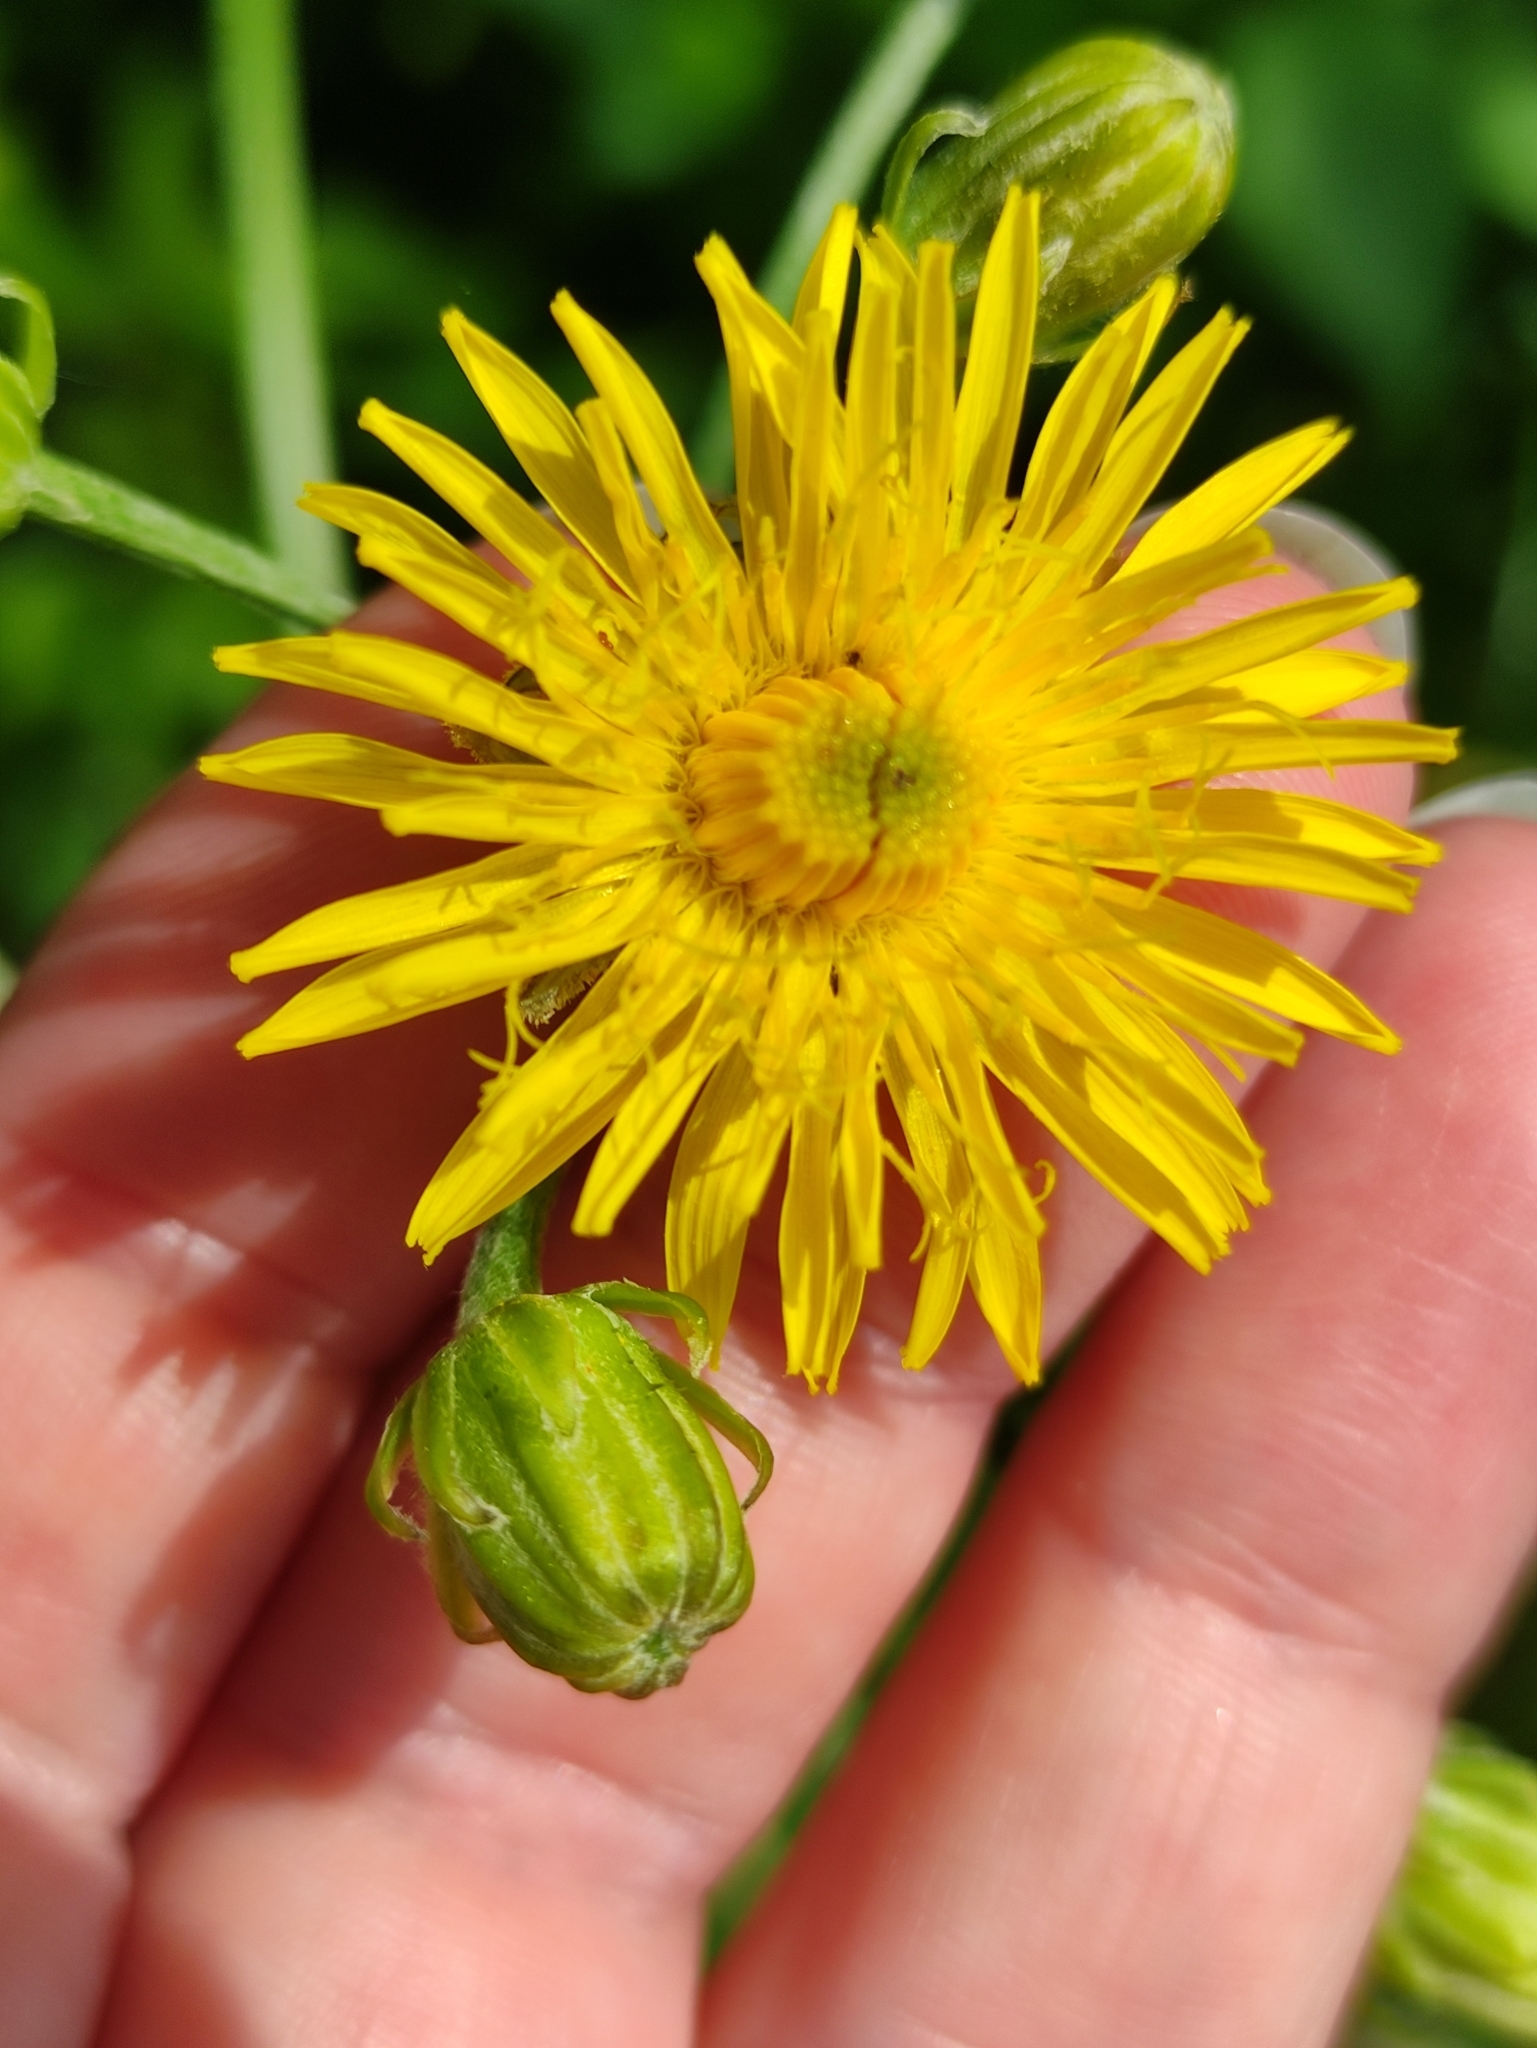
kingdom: Plantae
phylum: Tracheophyta
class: Magnoliopsida
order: Asterales
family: Asteraceae
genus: Crepis
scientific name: Crepis biennis
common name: Rough hawk's-beard
